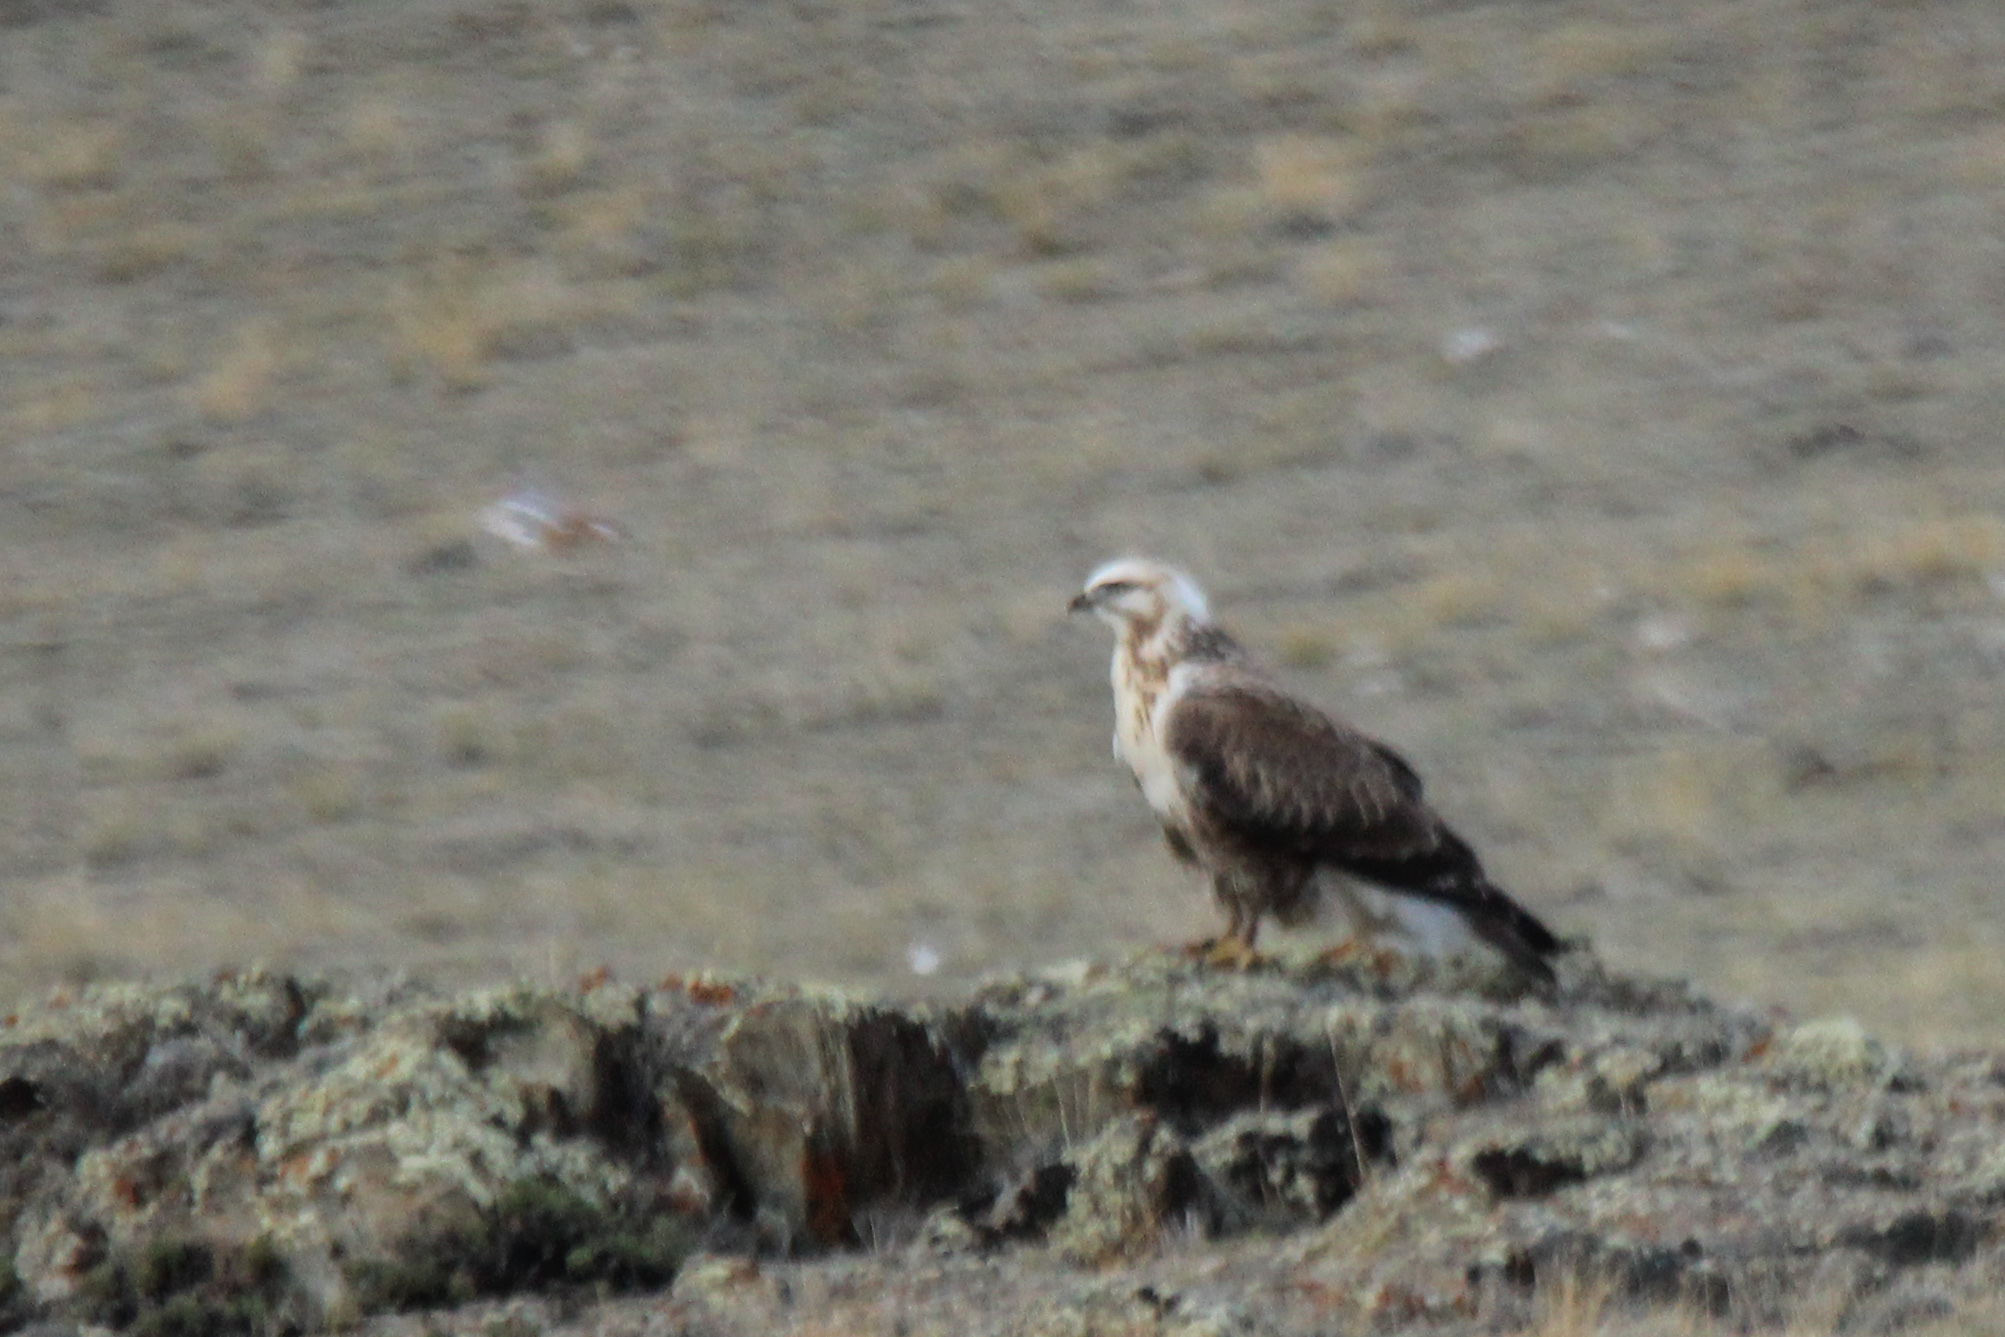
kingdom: Animalia
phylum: Chordata
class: Aves
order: Accipitriformes
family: Accipitridae
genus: Buteo
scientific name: Buteo hemilasius
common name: Upland buzzard
